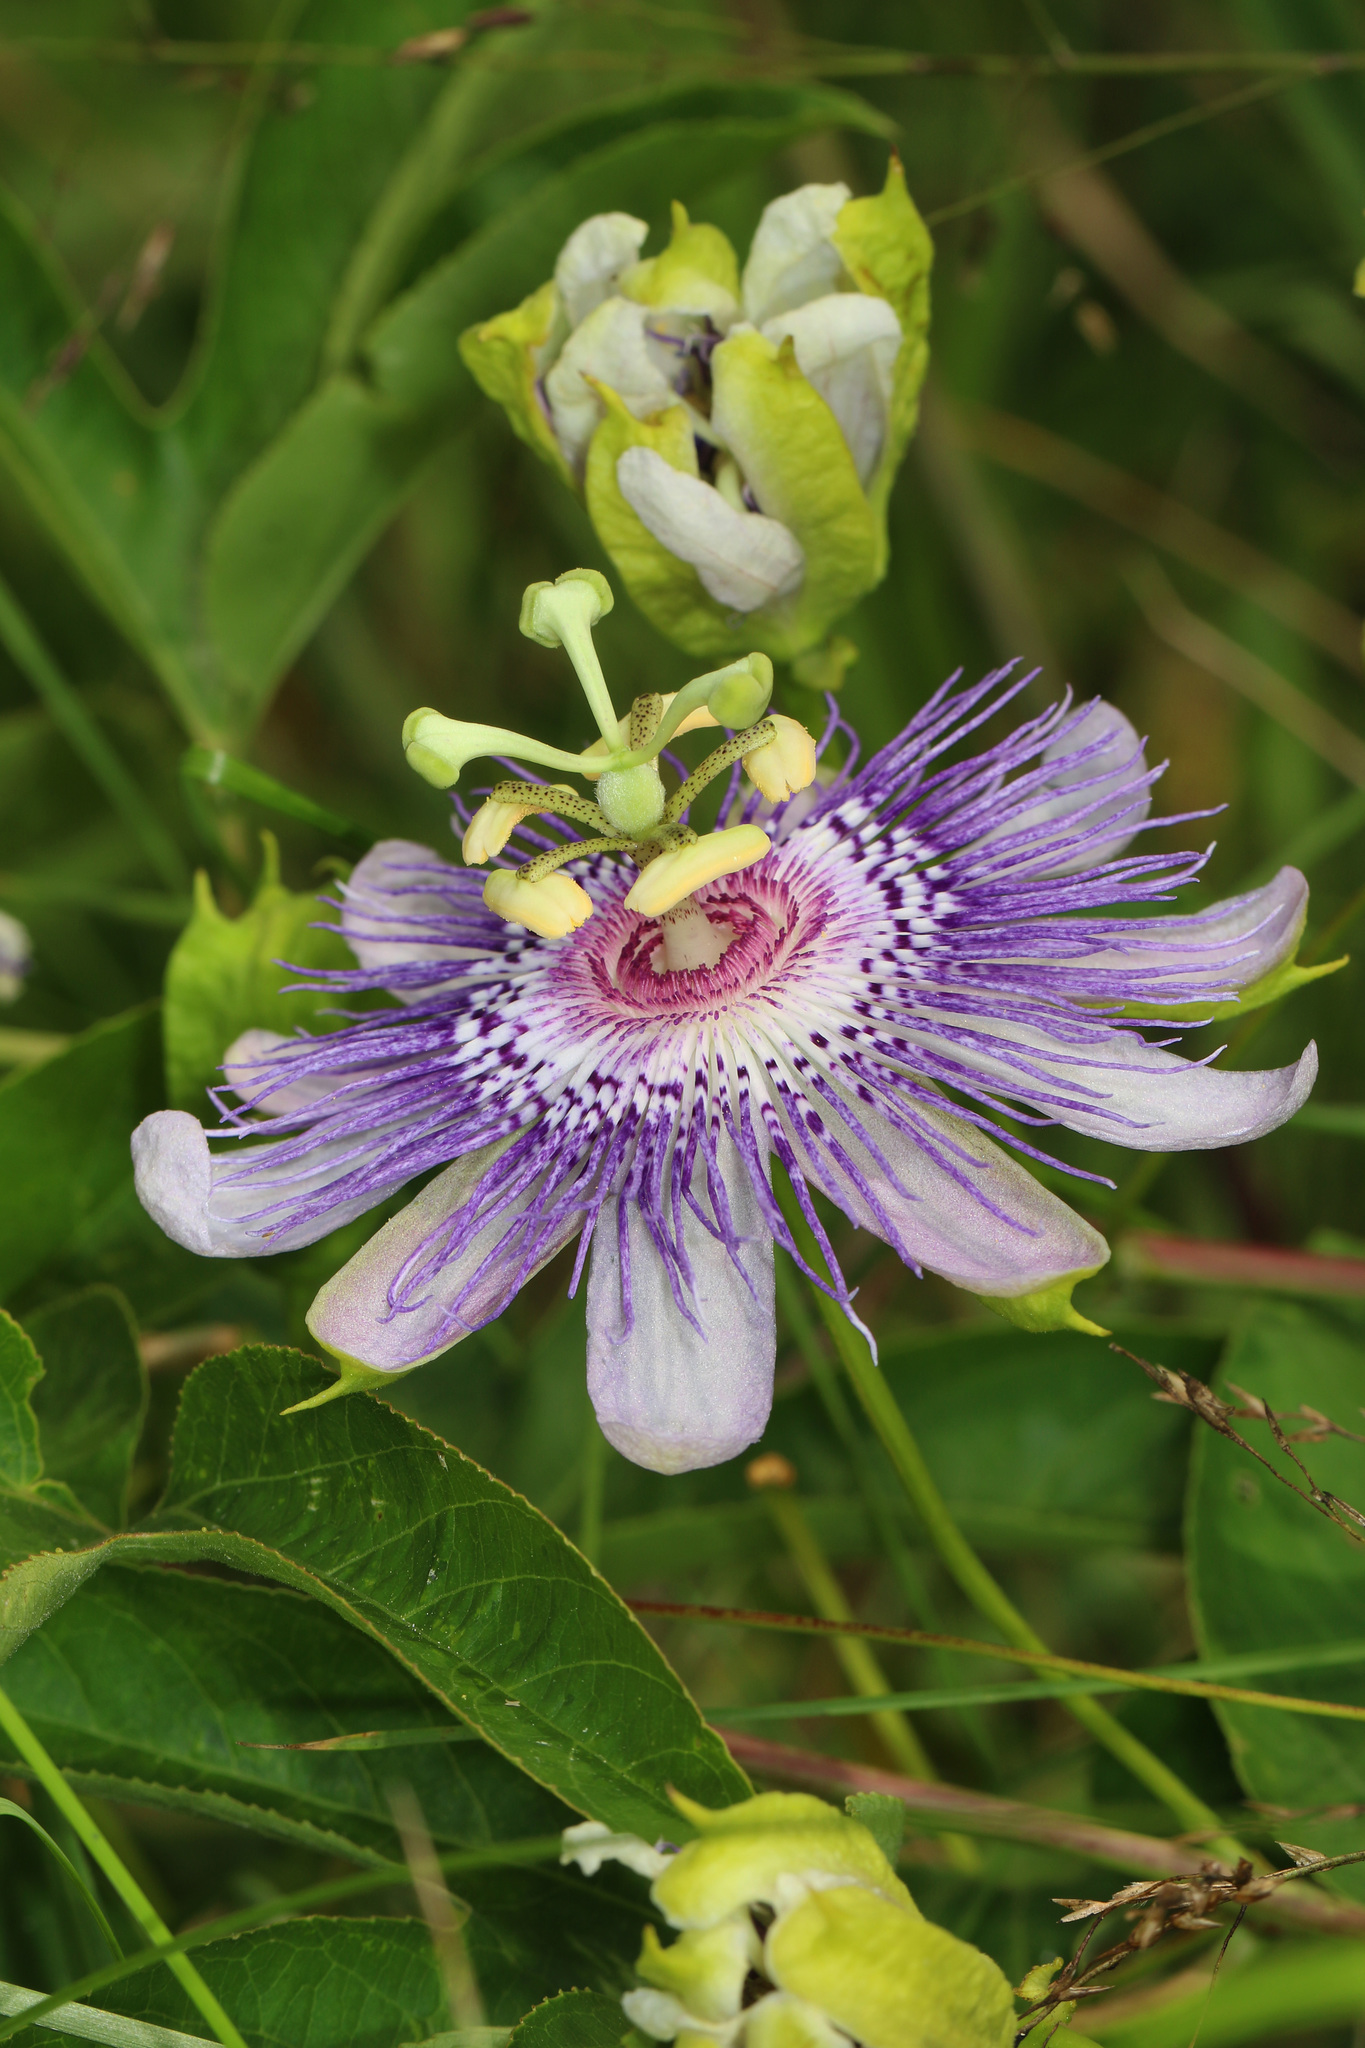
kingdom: Plantae
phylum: Tracheophyta
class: Magnoliopsida
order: Malpighiales
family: Passifloraceae
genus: Passiflora
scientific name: Passiflora incarnata
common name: Apricot-vine
